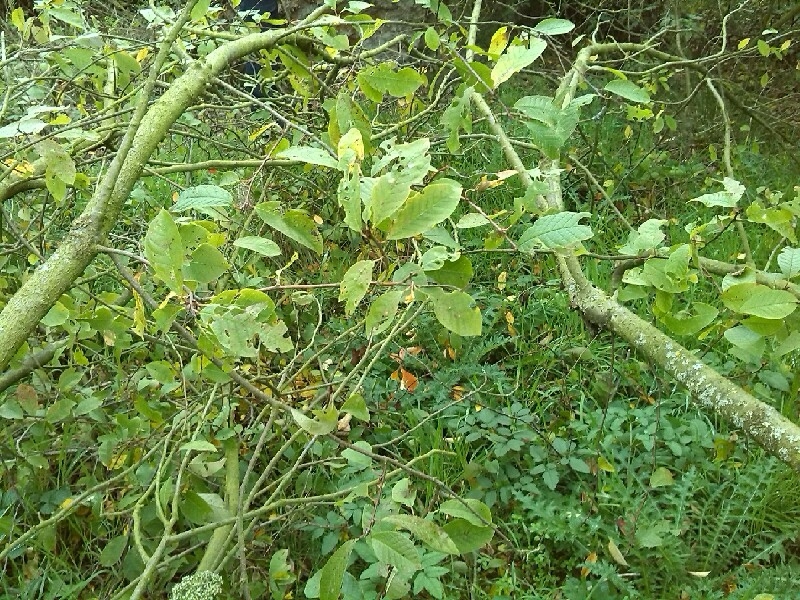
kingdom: Plantae
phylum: Tracheophyta
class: Magnoliopsida
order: Rosales
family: Rosaceae
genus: Prunus
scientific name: Prunus serotina
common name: Black cherry
